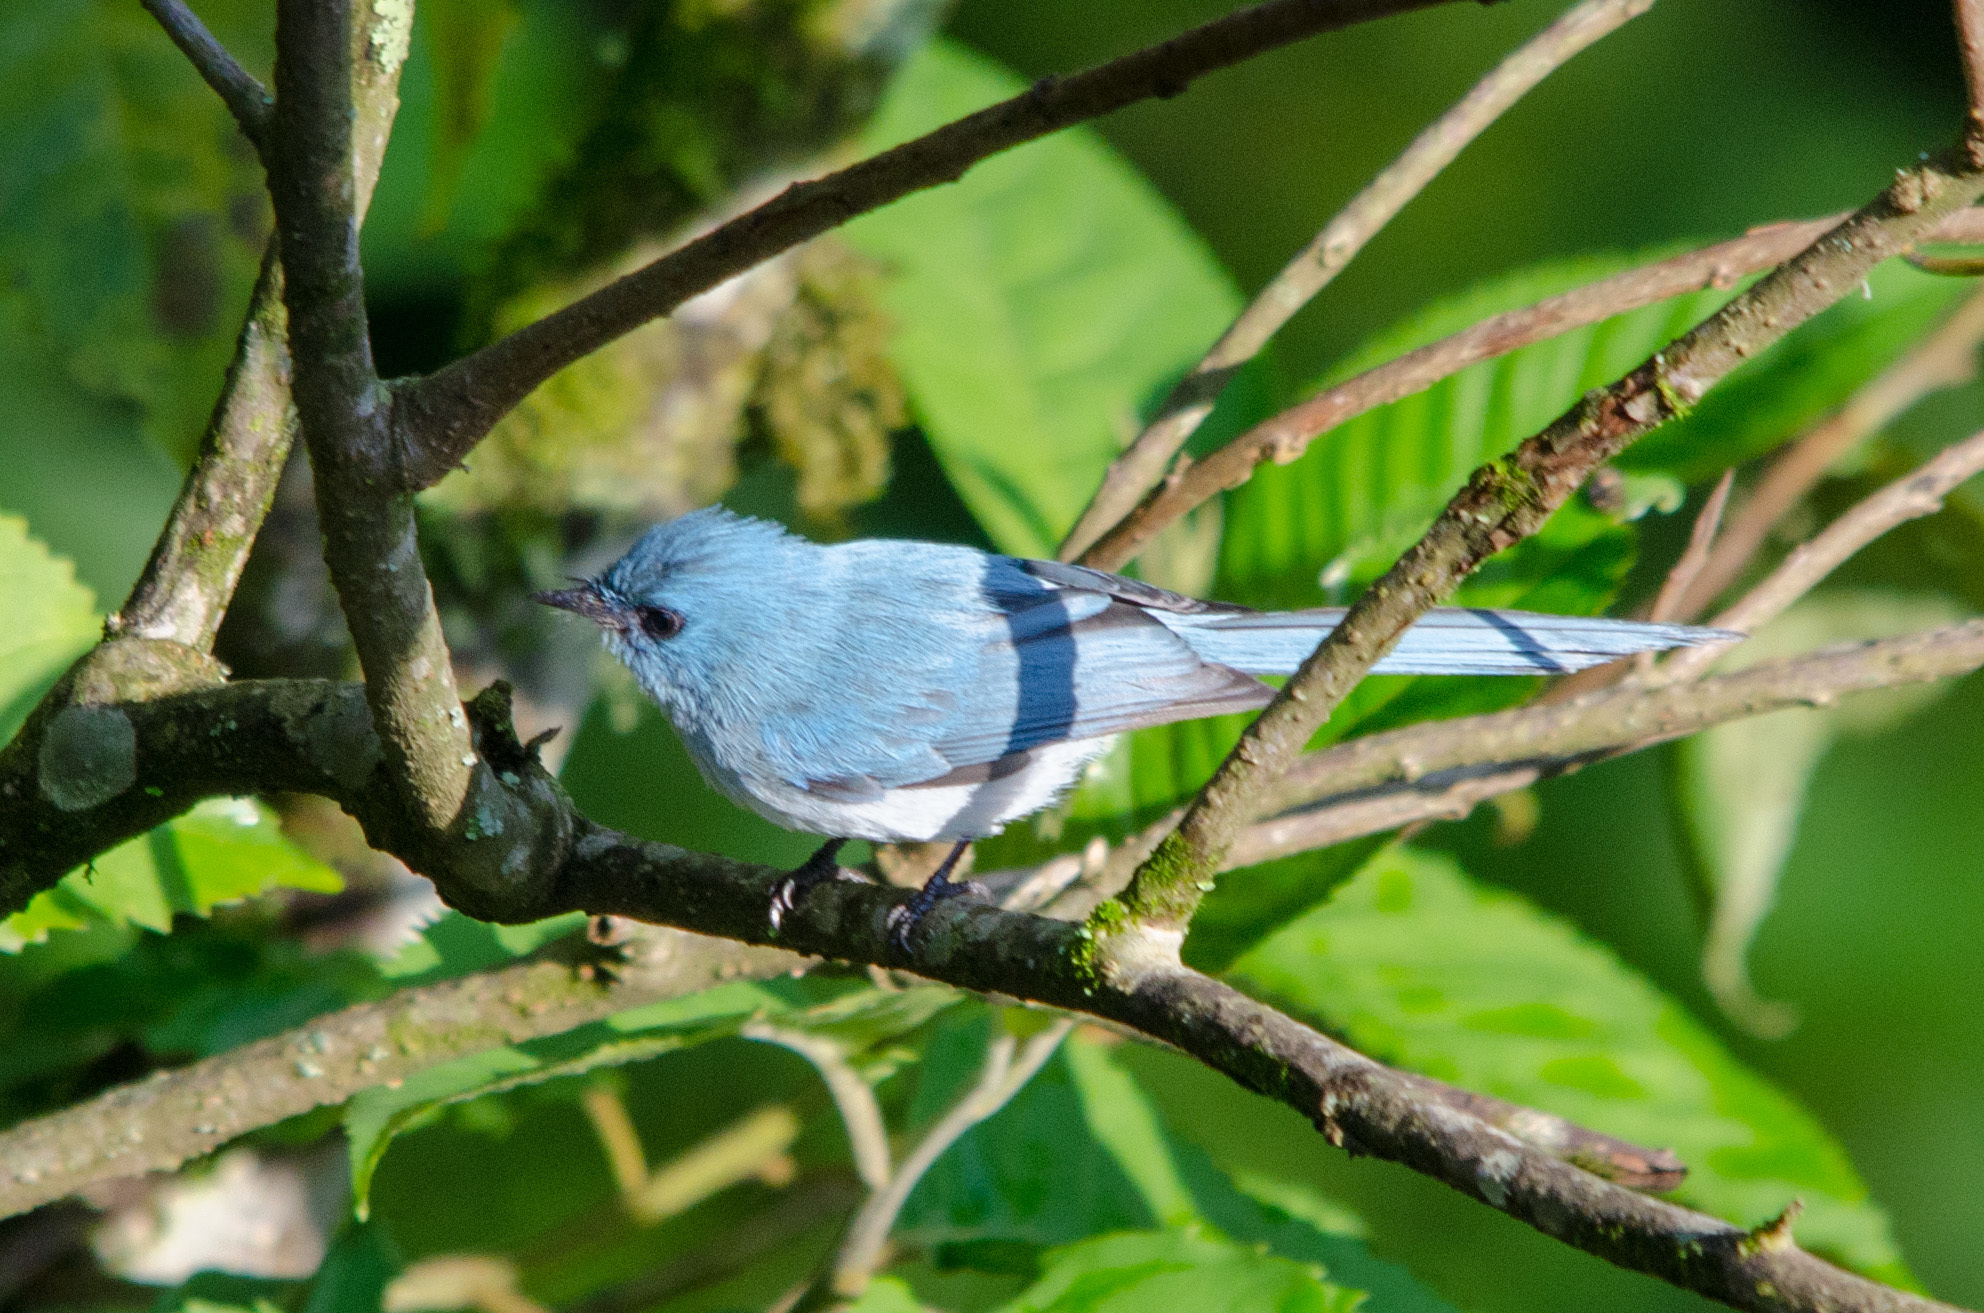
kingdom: Animalia
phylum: Chordata
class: Aves
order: Passeriformes
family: Stenostiridae
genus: Elminia
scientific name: Elminia albicauda
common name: White-tailed blue flycatcher
